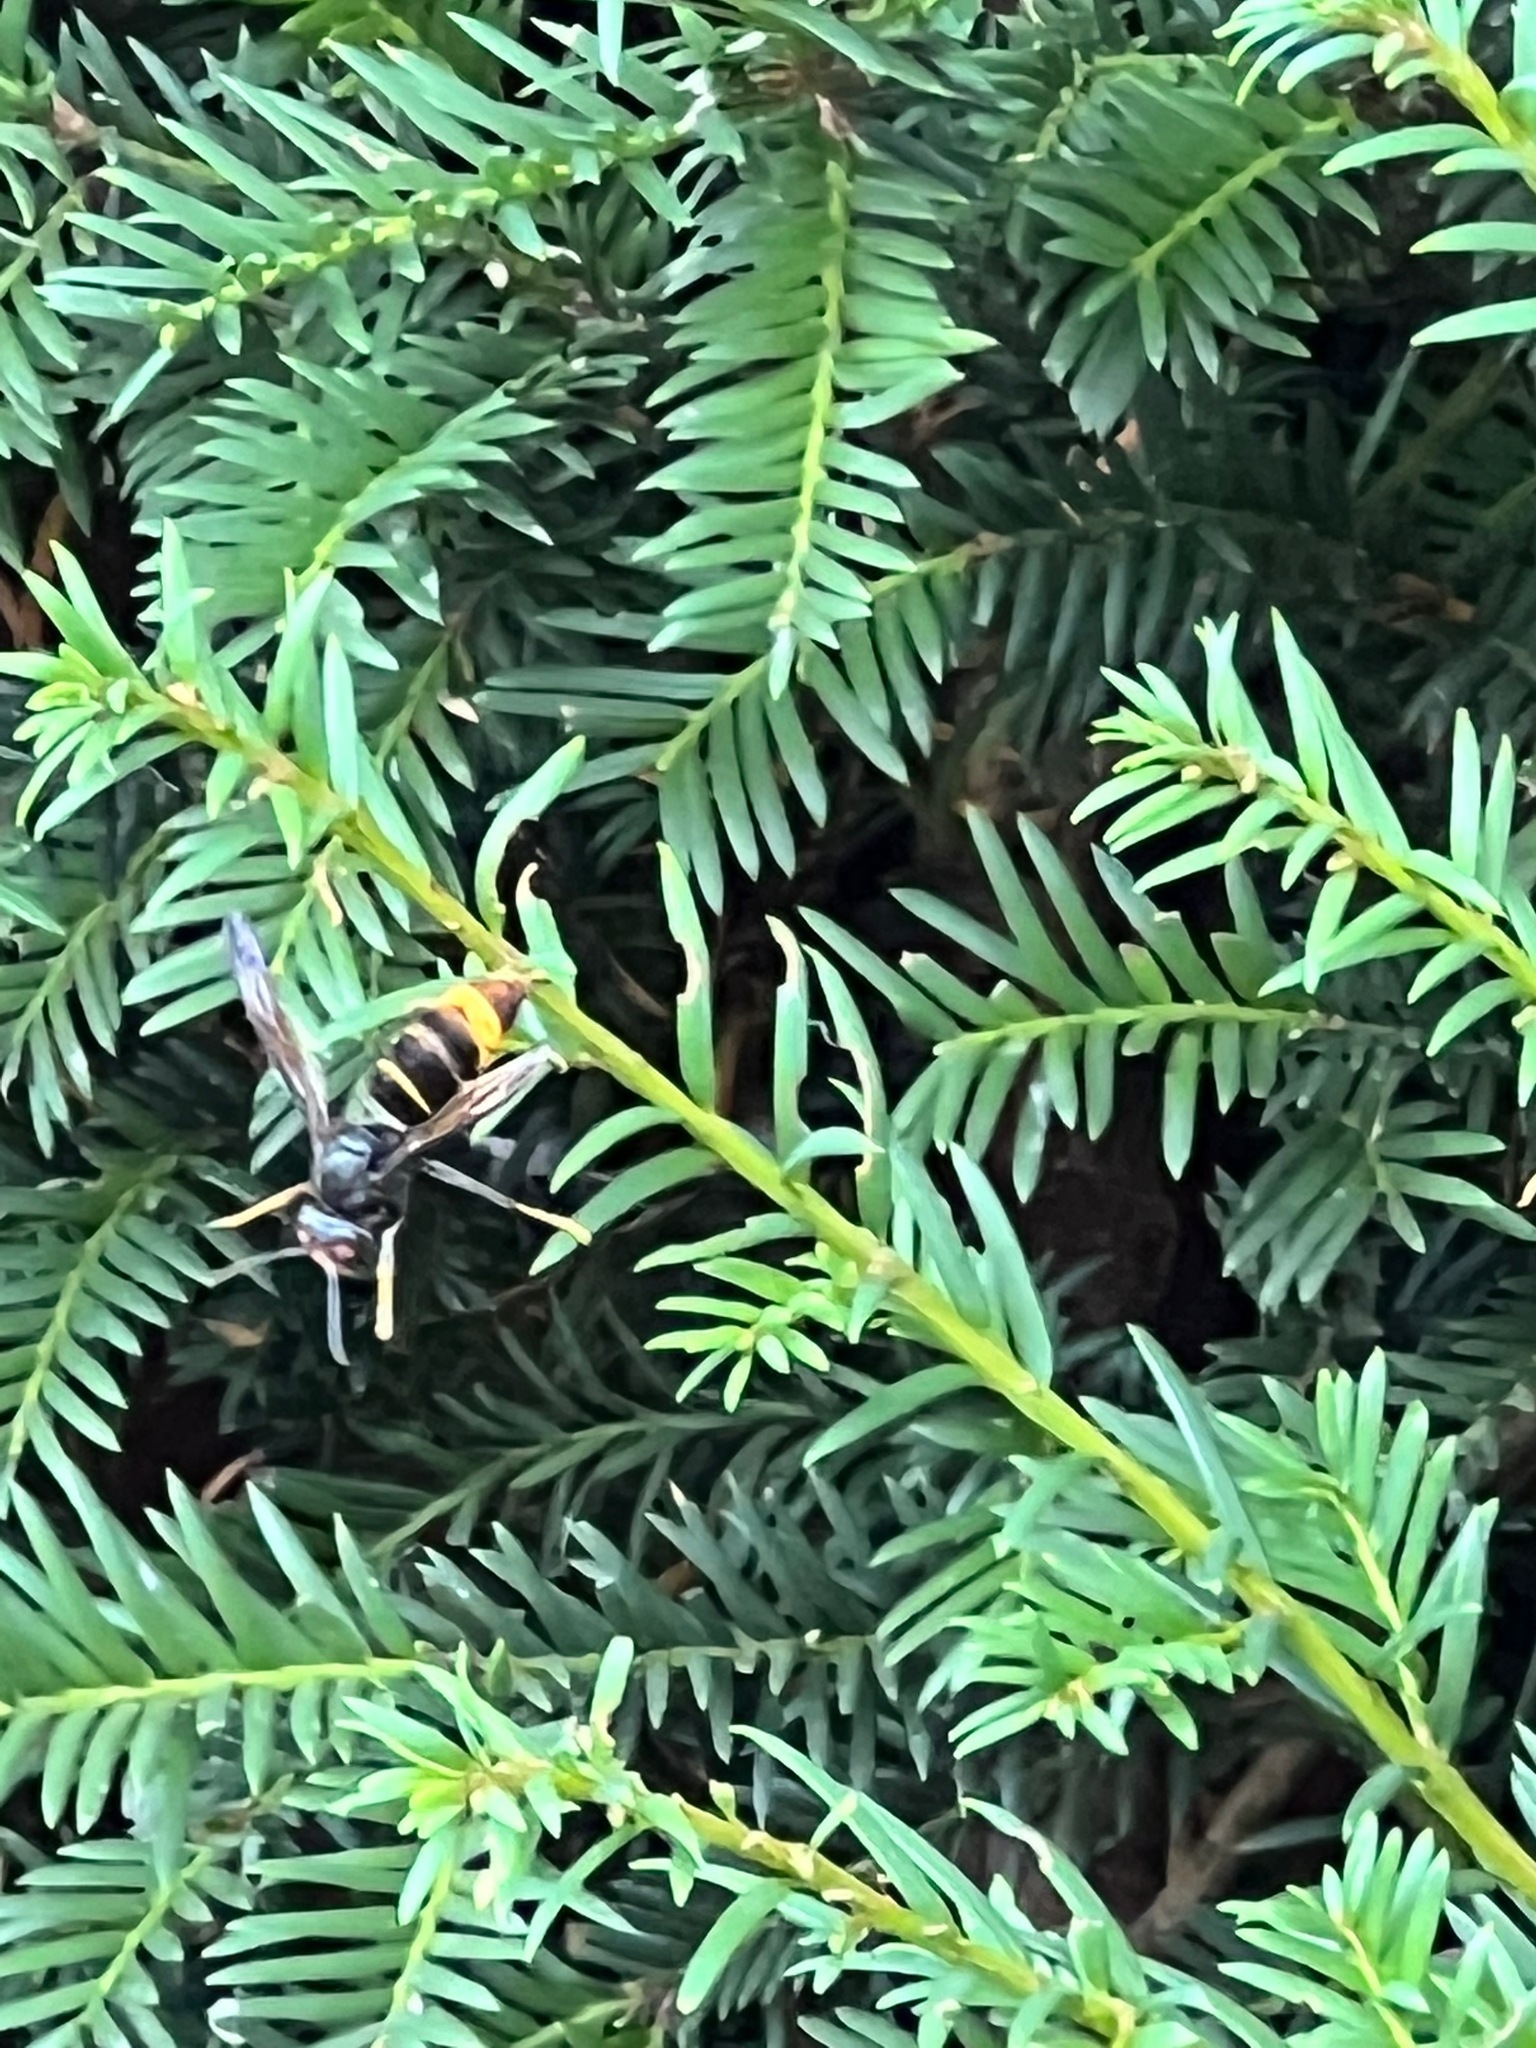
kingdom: Animalia
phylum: Arthropoda
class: Insecta
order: Hymenoptera
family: Vespidae
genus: Vespa
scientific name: Vespa velutina
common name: Asian hornet
